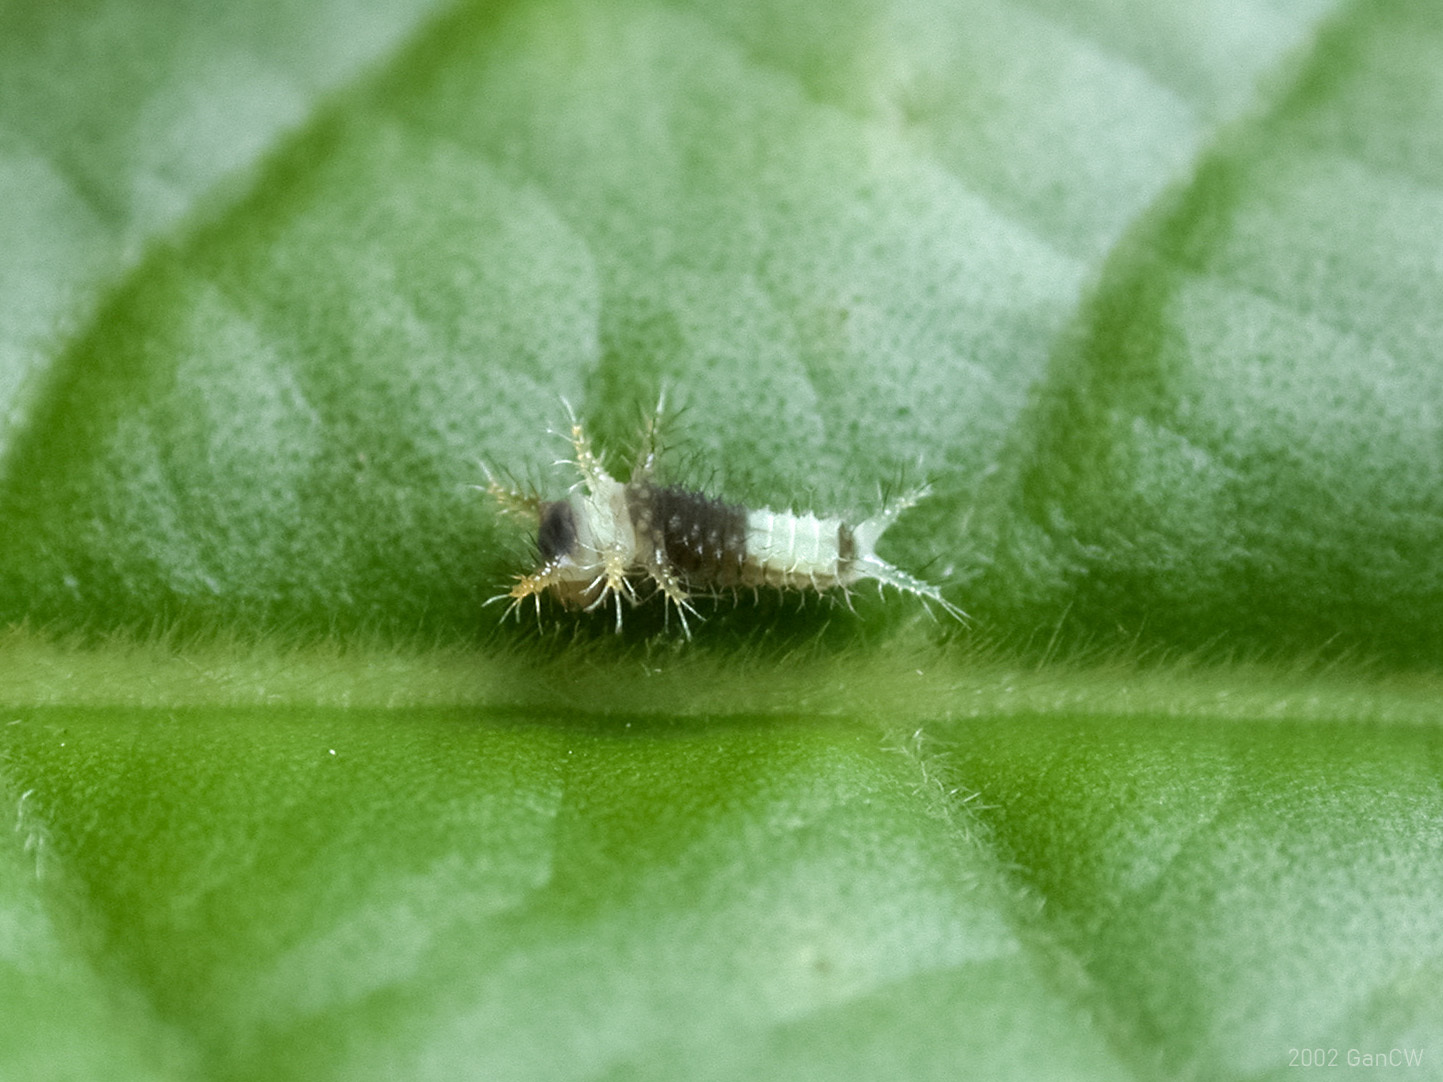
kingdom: Animalia
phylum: Arthropoda
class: Insecta
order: Lepidoptera
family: Papilionidae
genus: Graphium
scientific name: Graphium agamemnon
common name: Tailed jay
